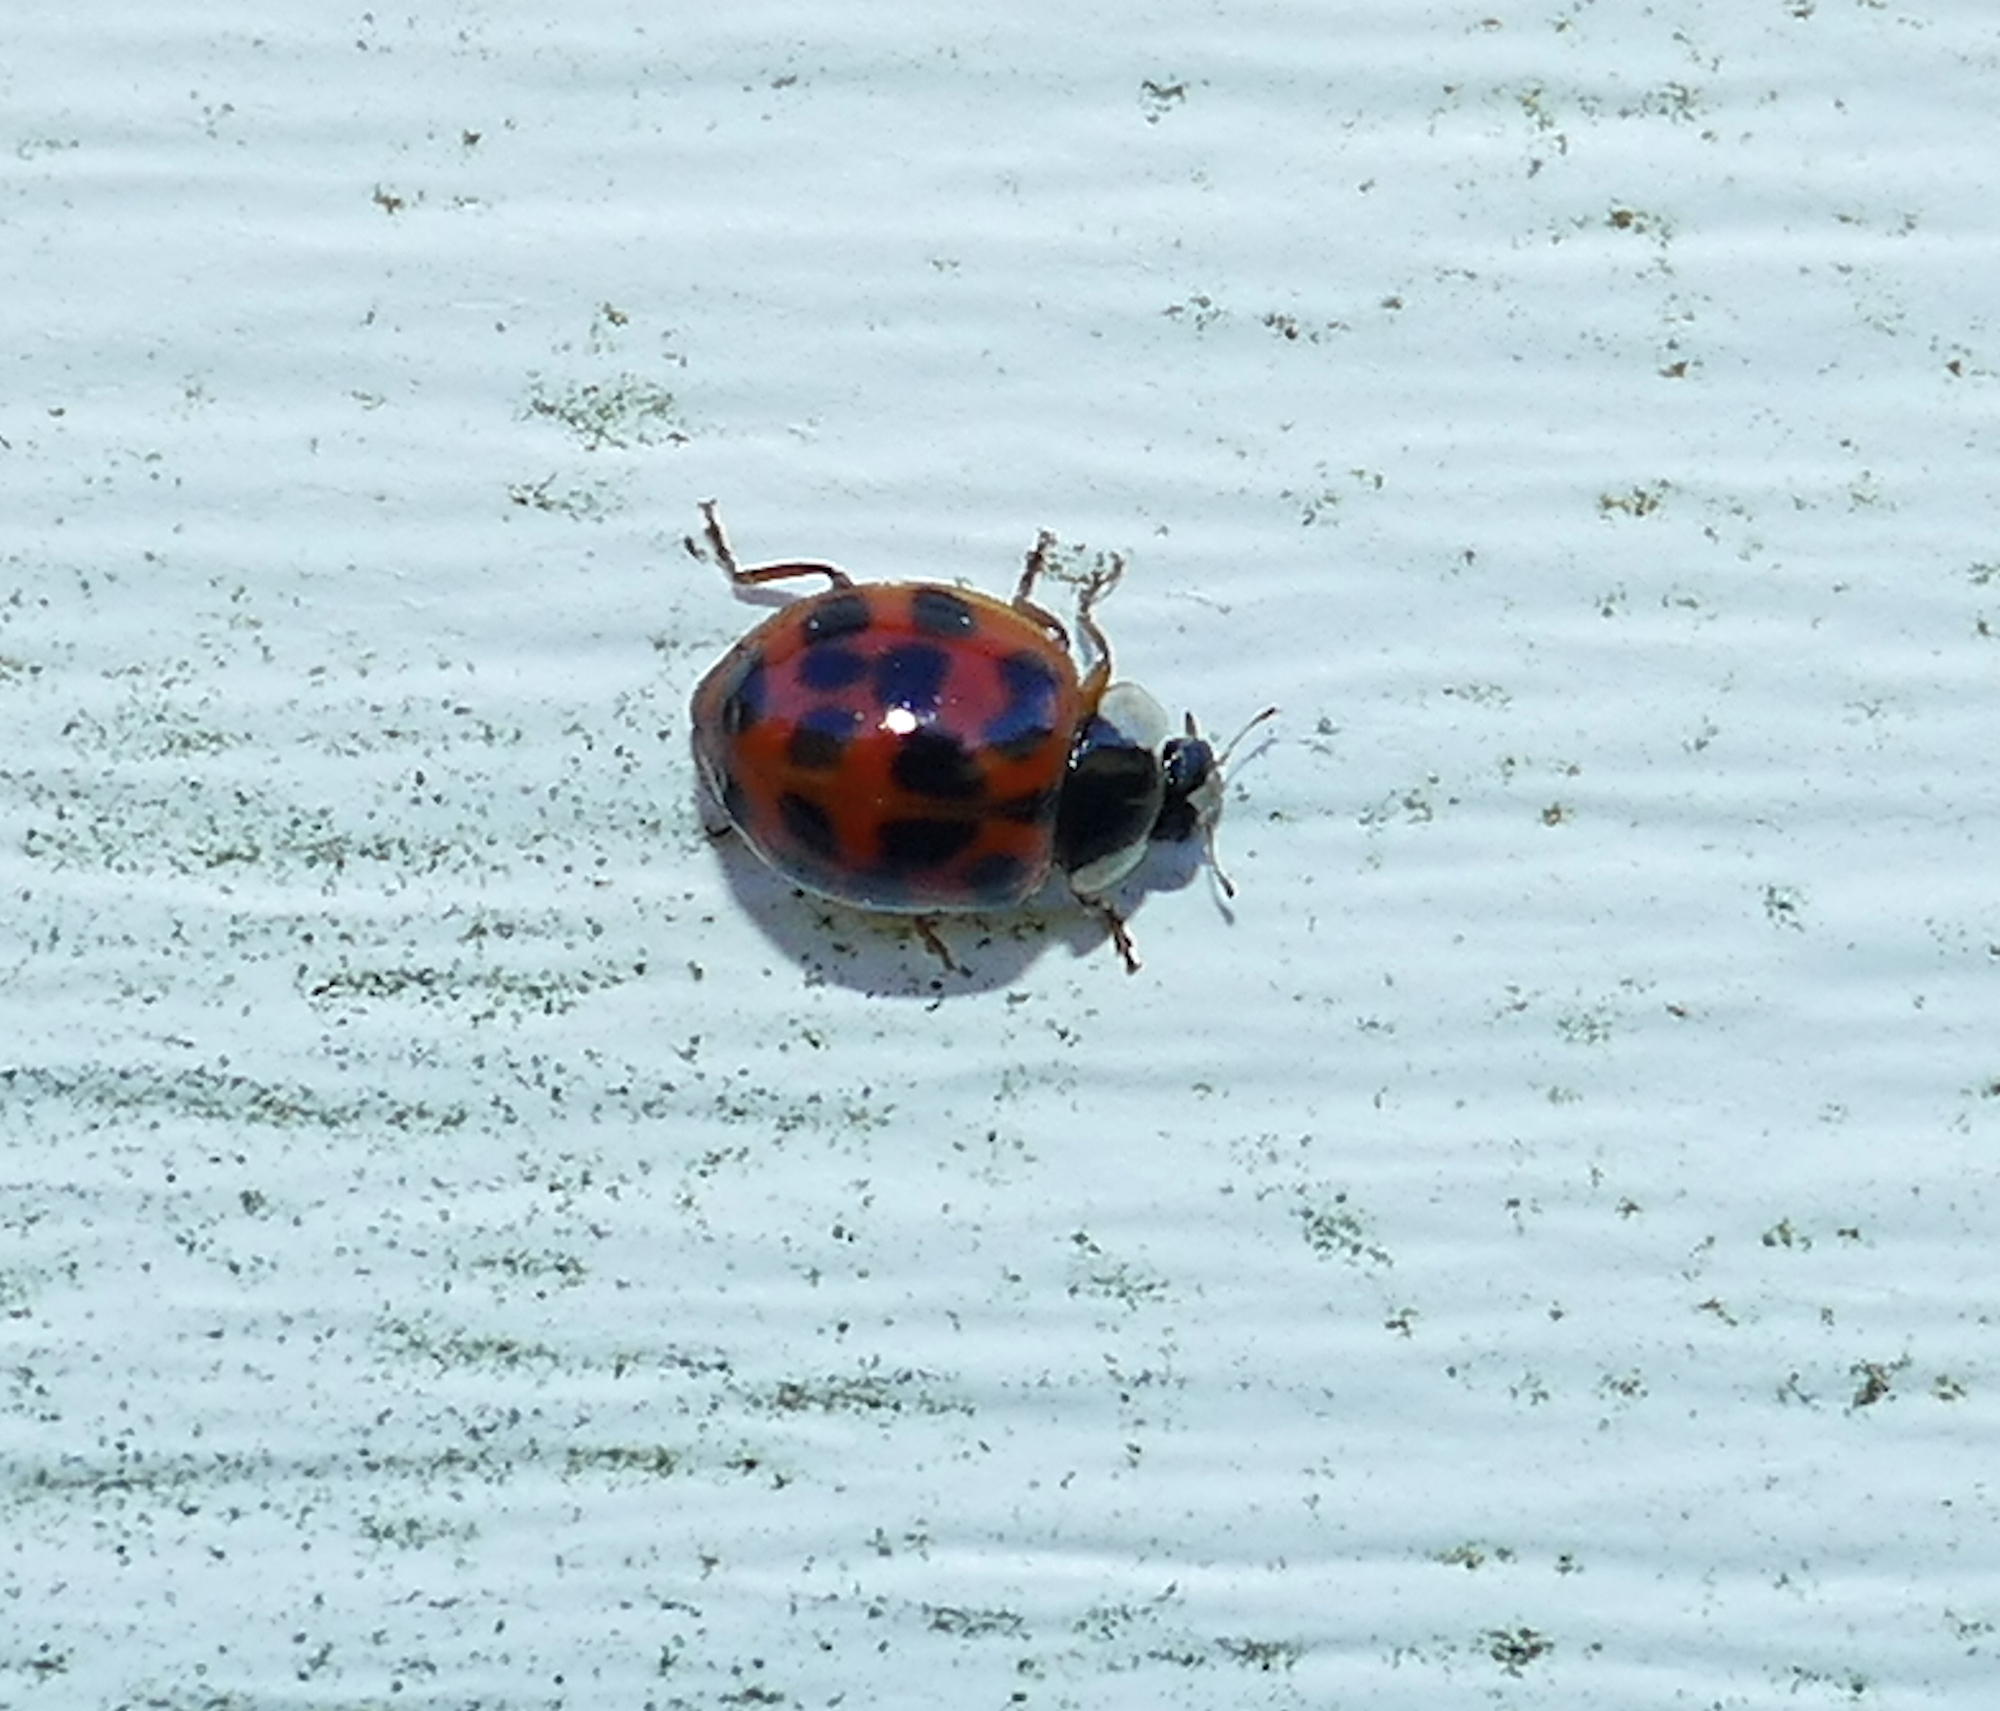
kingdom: Animalia
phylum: Arthropoda
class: Insecta
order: Coleoptera
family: Coccinellidae
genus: Harmonia
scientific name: Harmonia axyridis
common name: Harlequin ladybird
